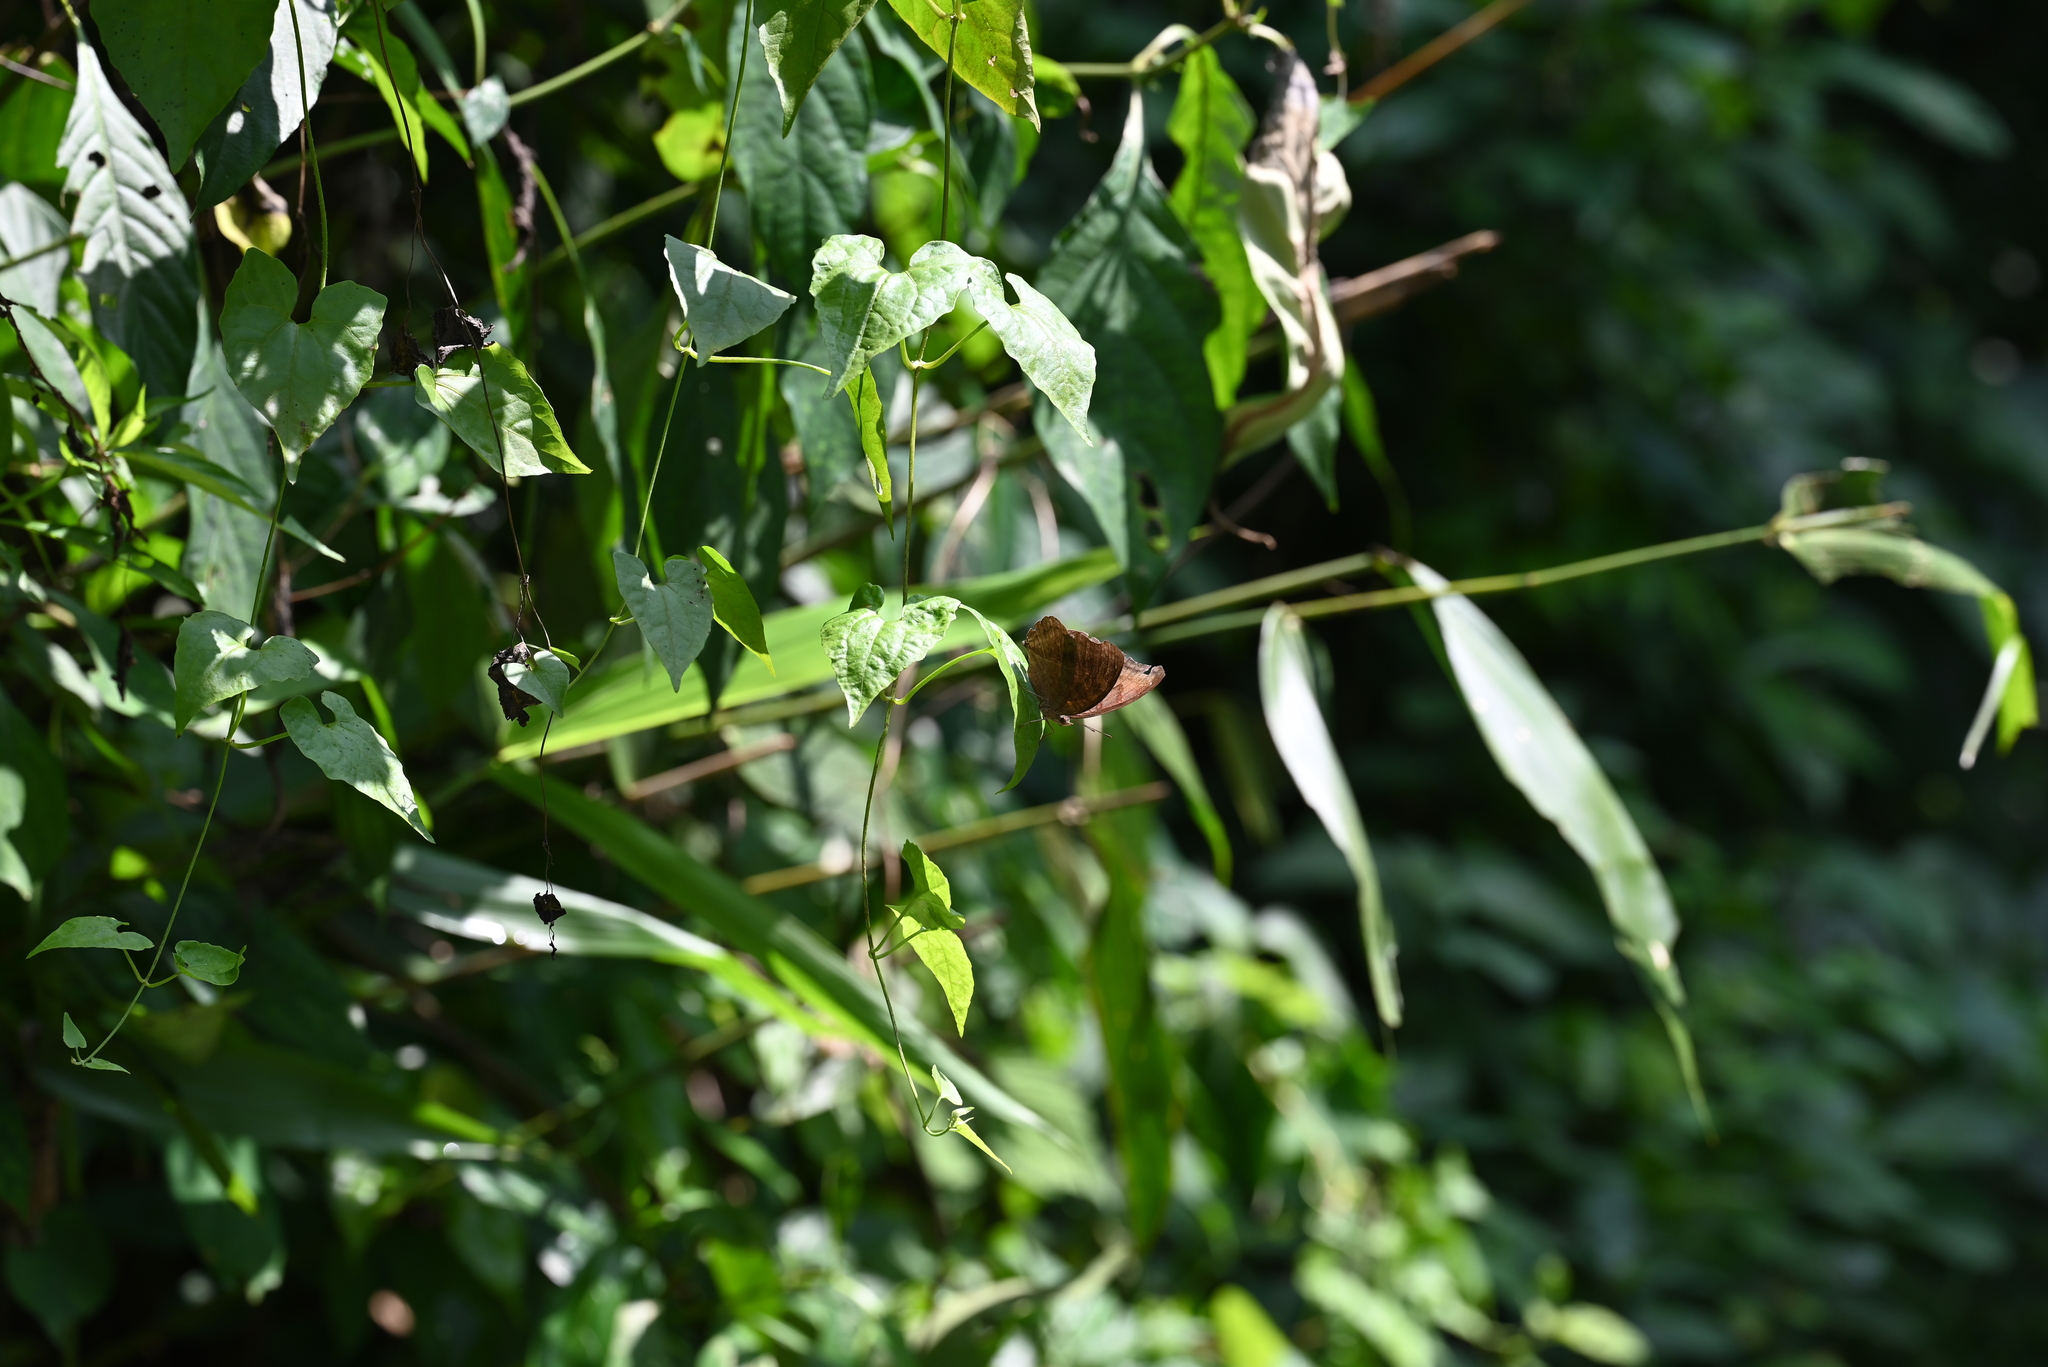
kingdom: Animalia
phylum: Arthropoda
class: Insecta
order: Lepidoptera
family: Nymphalidae
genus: Junonia
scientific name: Junonia iphita
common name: Chocolate pansy
